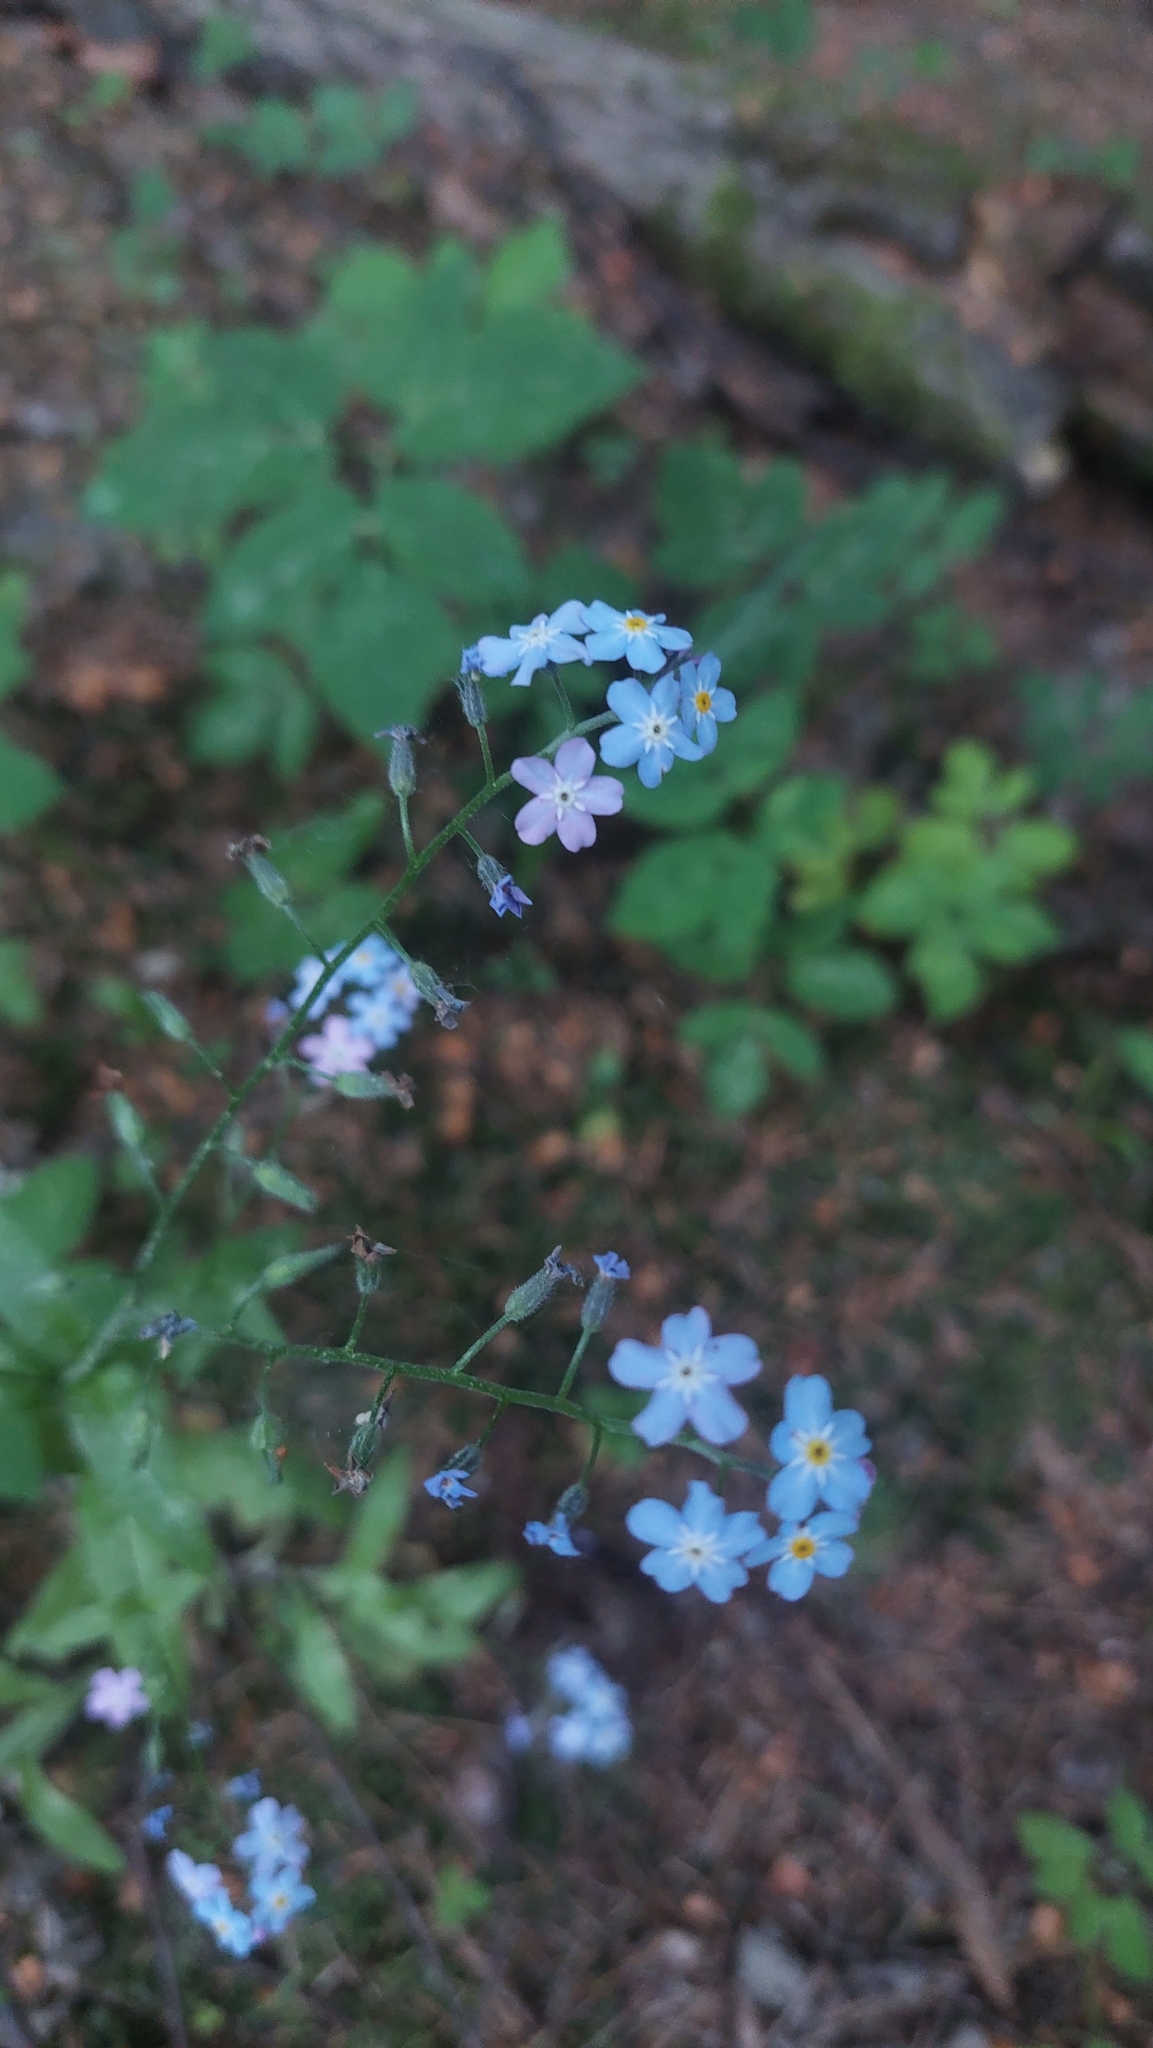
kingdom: Plantae
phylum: Tracheophyta
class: Magnoliopsida
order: Boraginales
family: Boraginaceae
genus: Myosotis
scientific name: Myosotis sylvatica
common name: Wood forget-me-not
